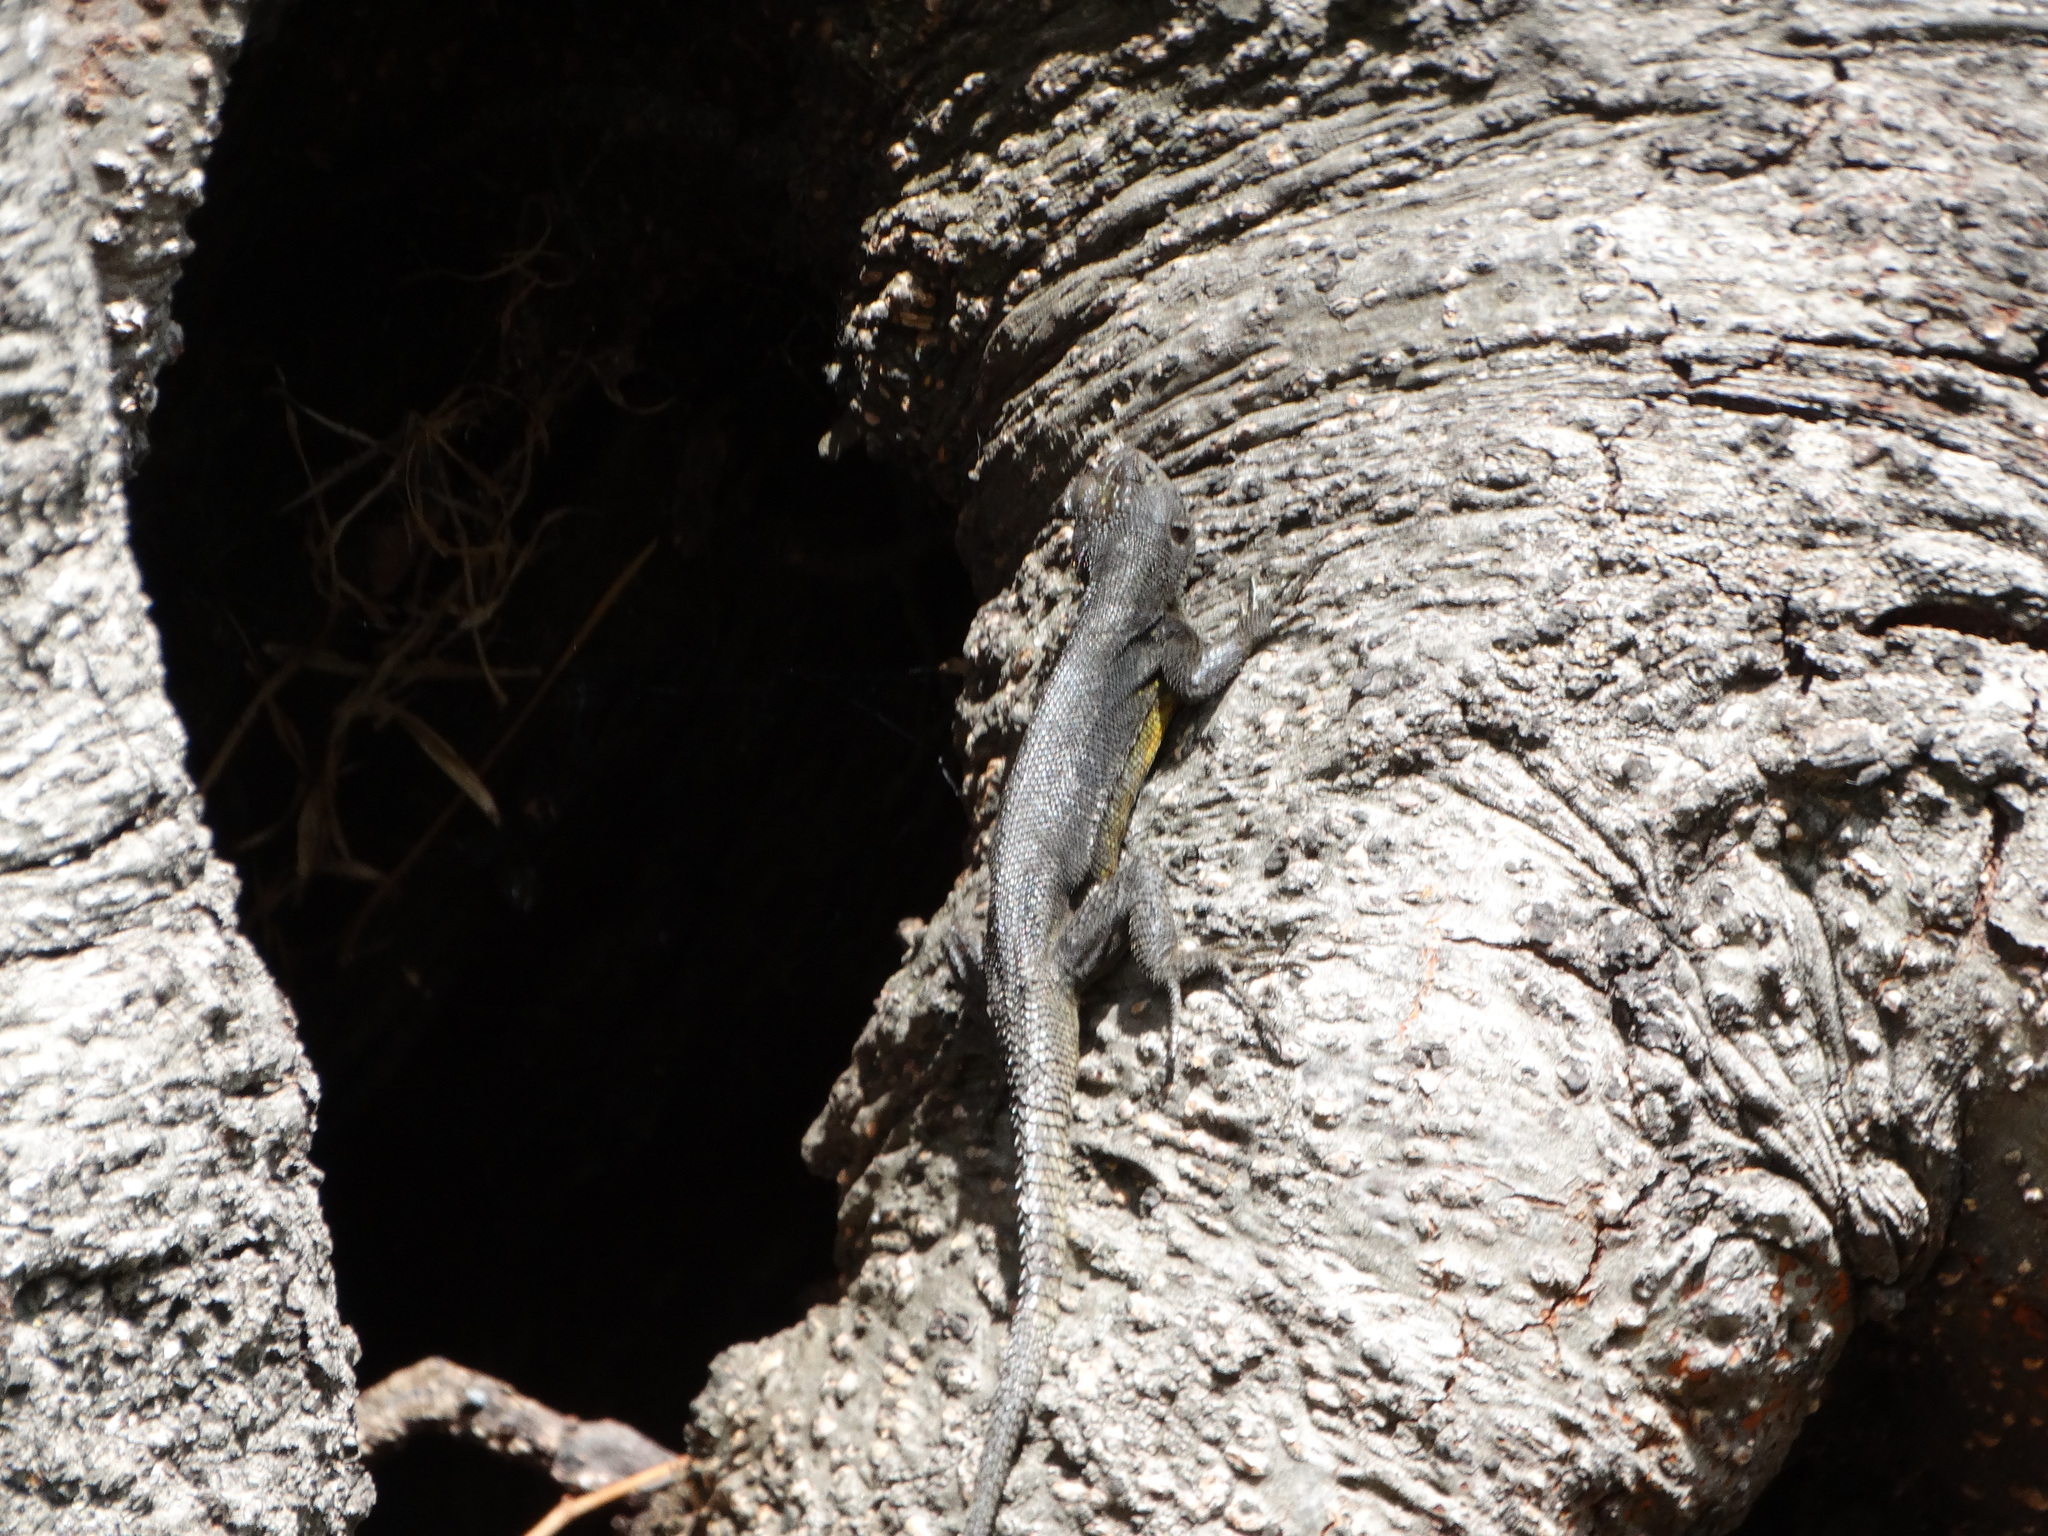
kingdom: Animalia
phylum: Chordata
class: Squamata
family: Phrynosomatidae
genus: Sceloporus
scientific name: Sceloporus grammicus
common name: Mesquite lizard
